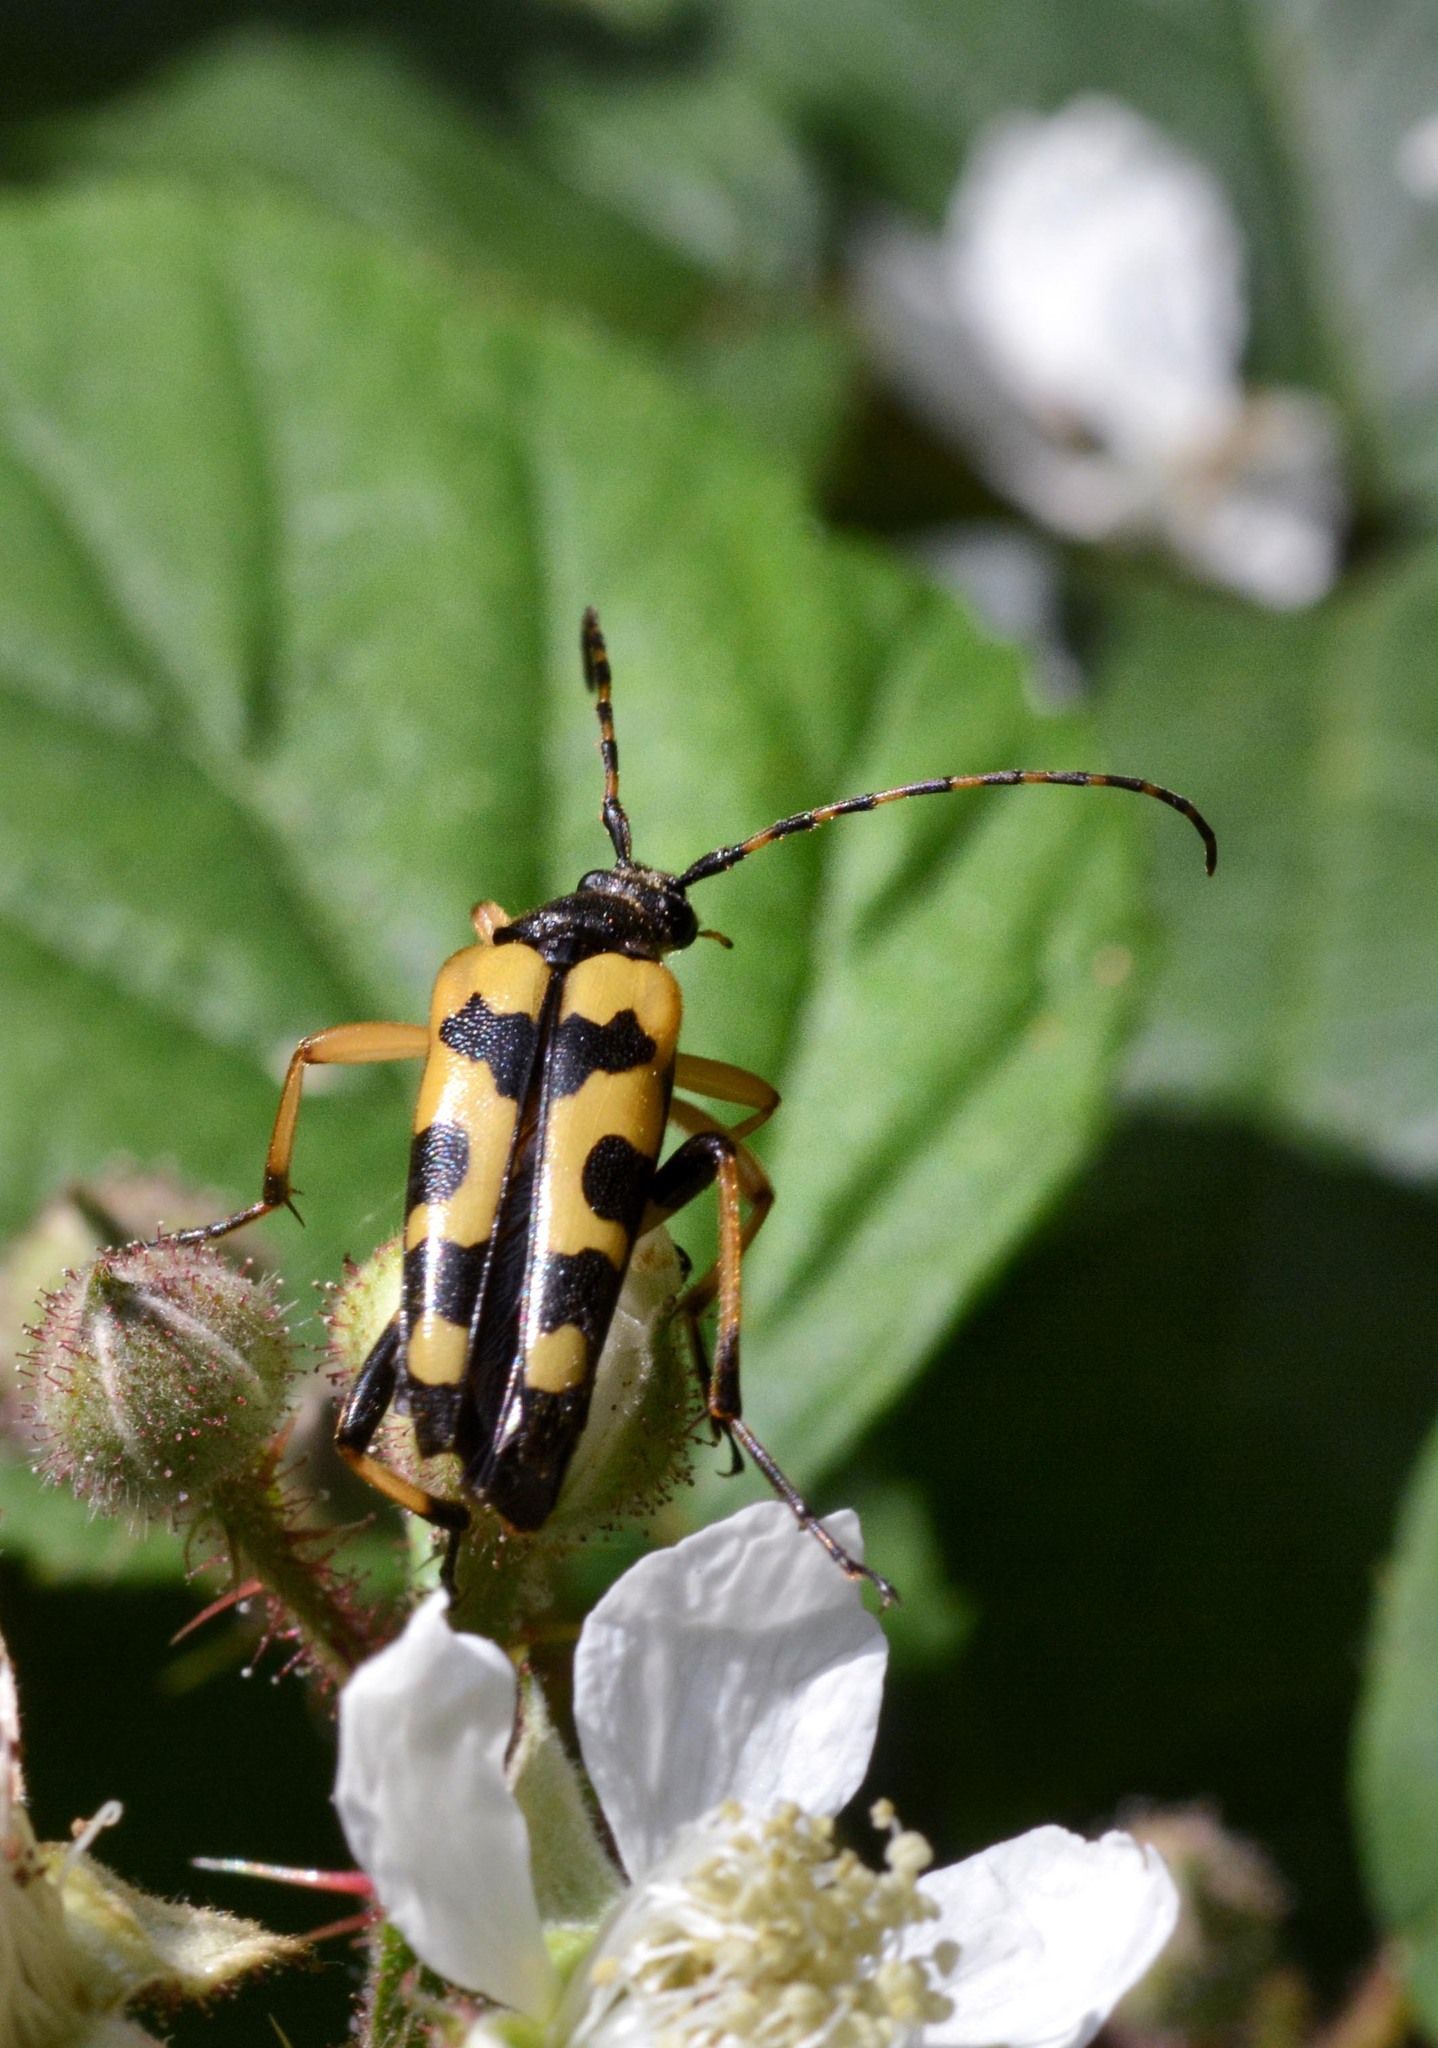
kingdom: Animalia
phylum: Arthropoda
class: Insecta
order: Coleoptera
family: Cerambycidae
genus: Rutpela
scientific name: Rutpela maculata
